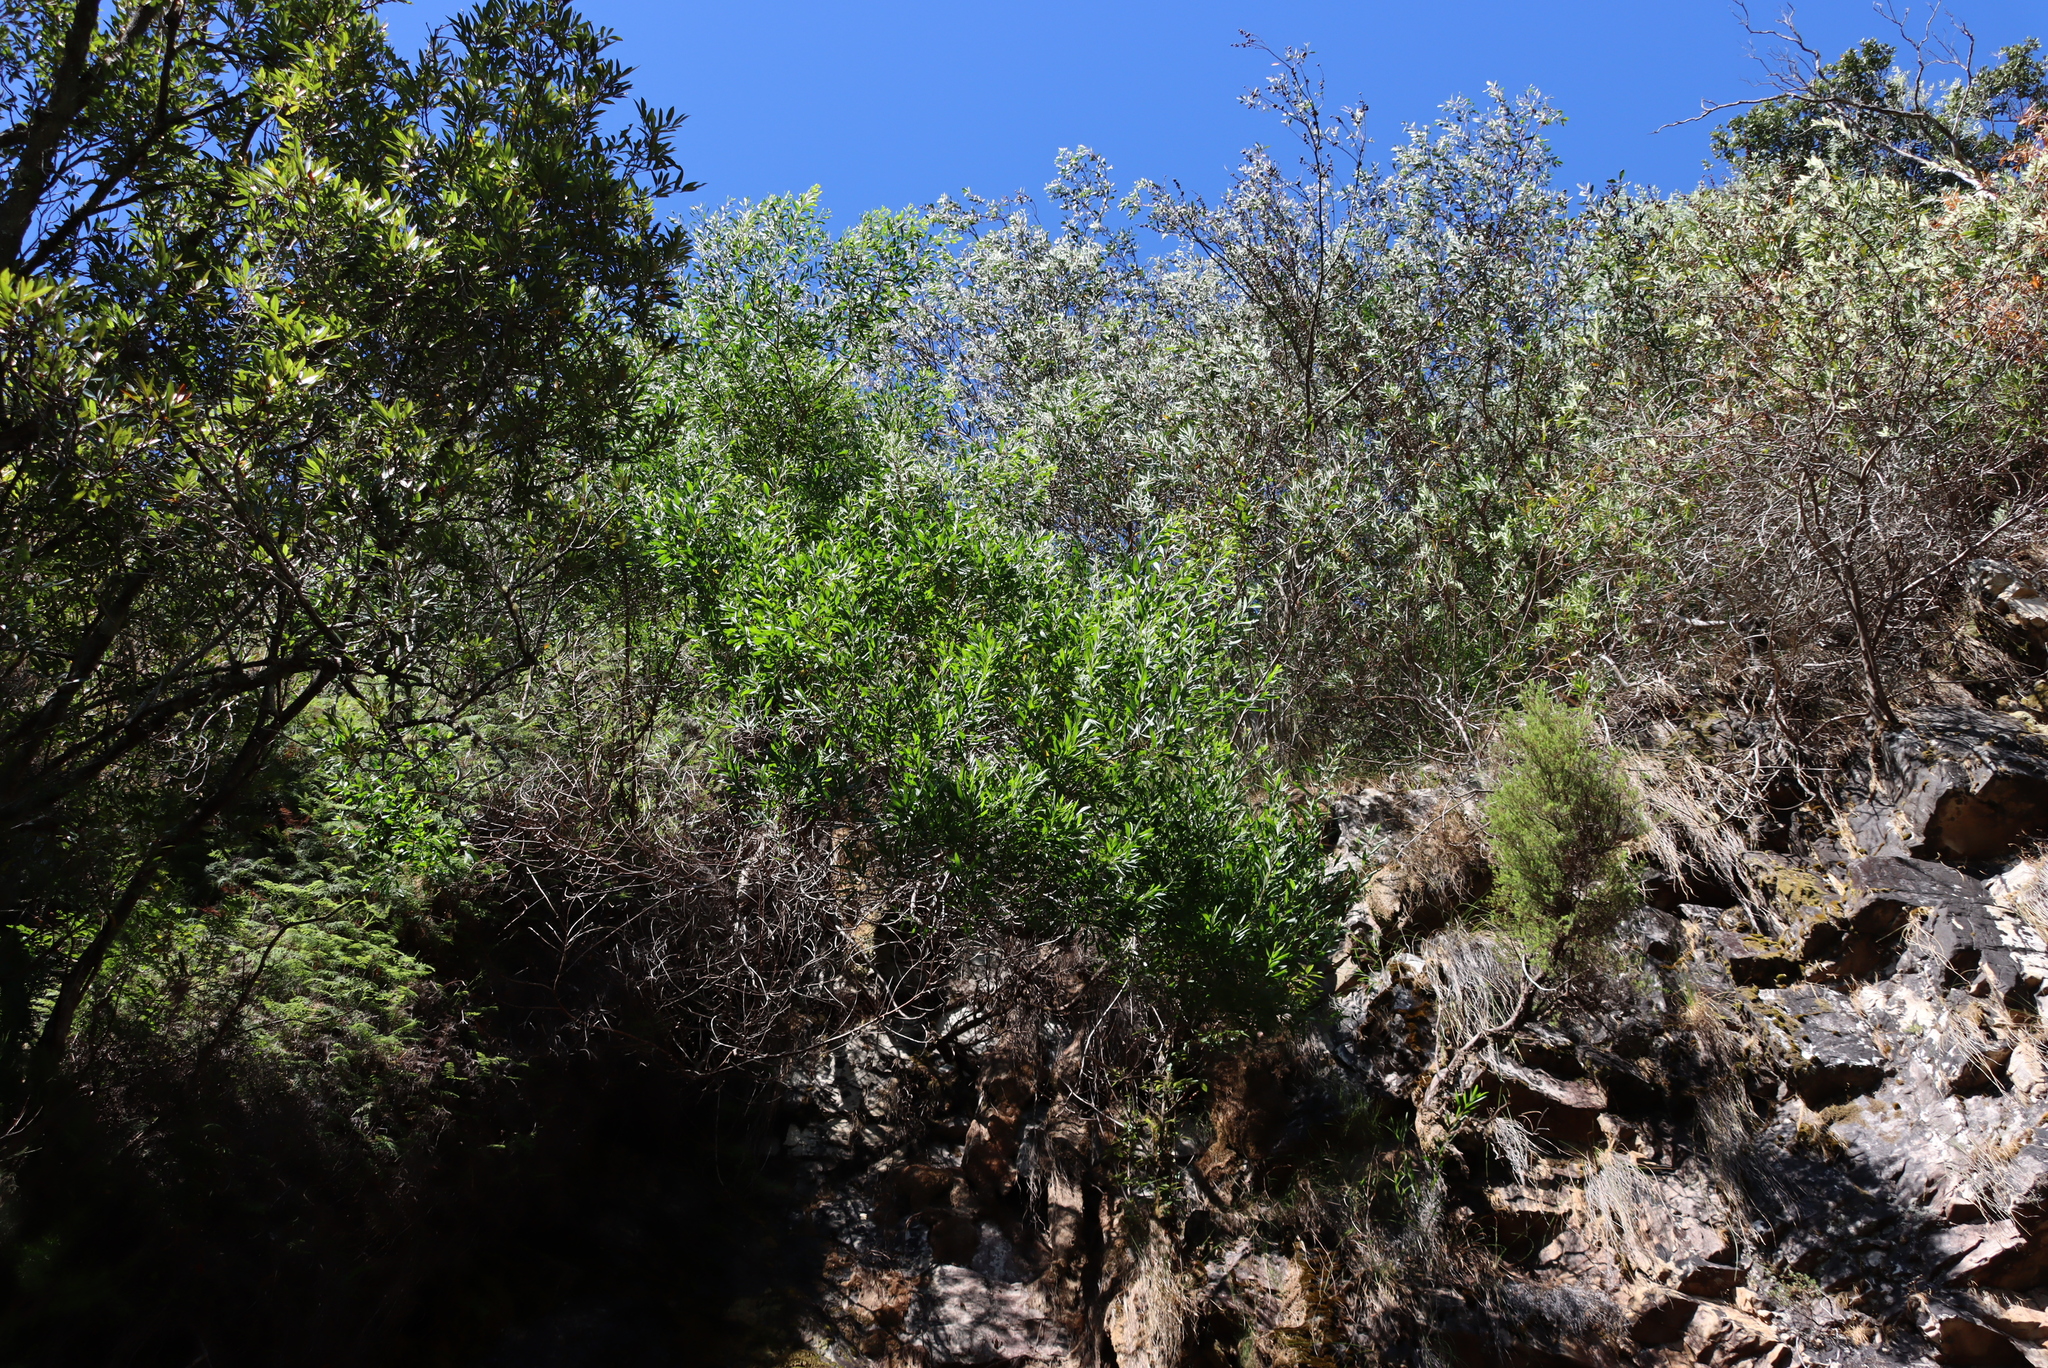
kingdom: Plantae
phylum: Tracheophyta
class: Magnoliopsida
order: Fabales
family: Fabaceae
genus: Acacia
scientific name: Acacia longifolia
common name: Sydney golden wattle
